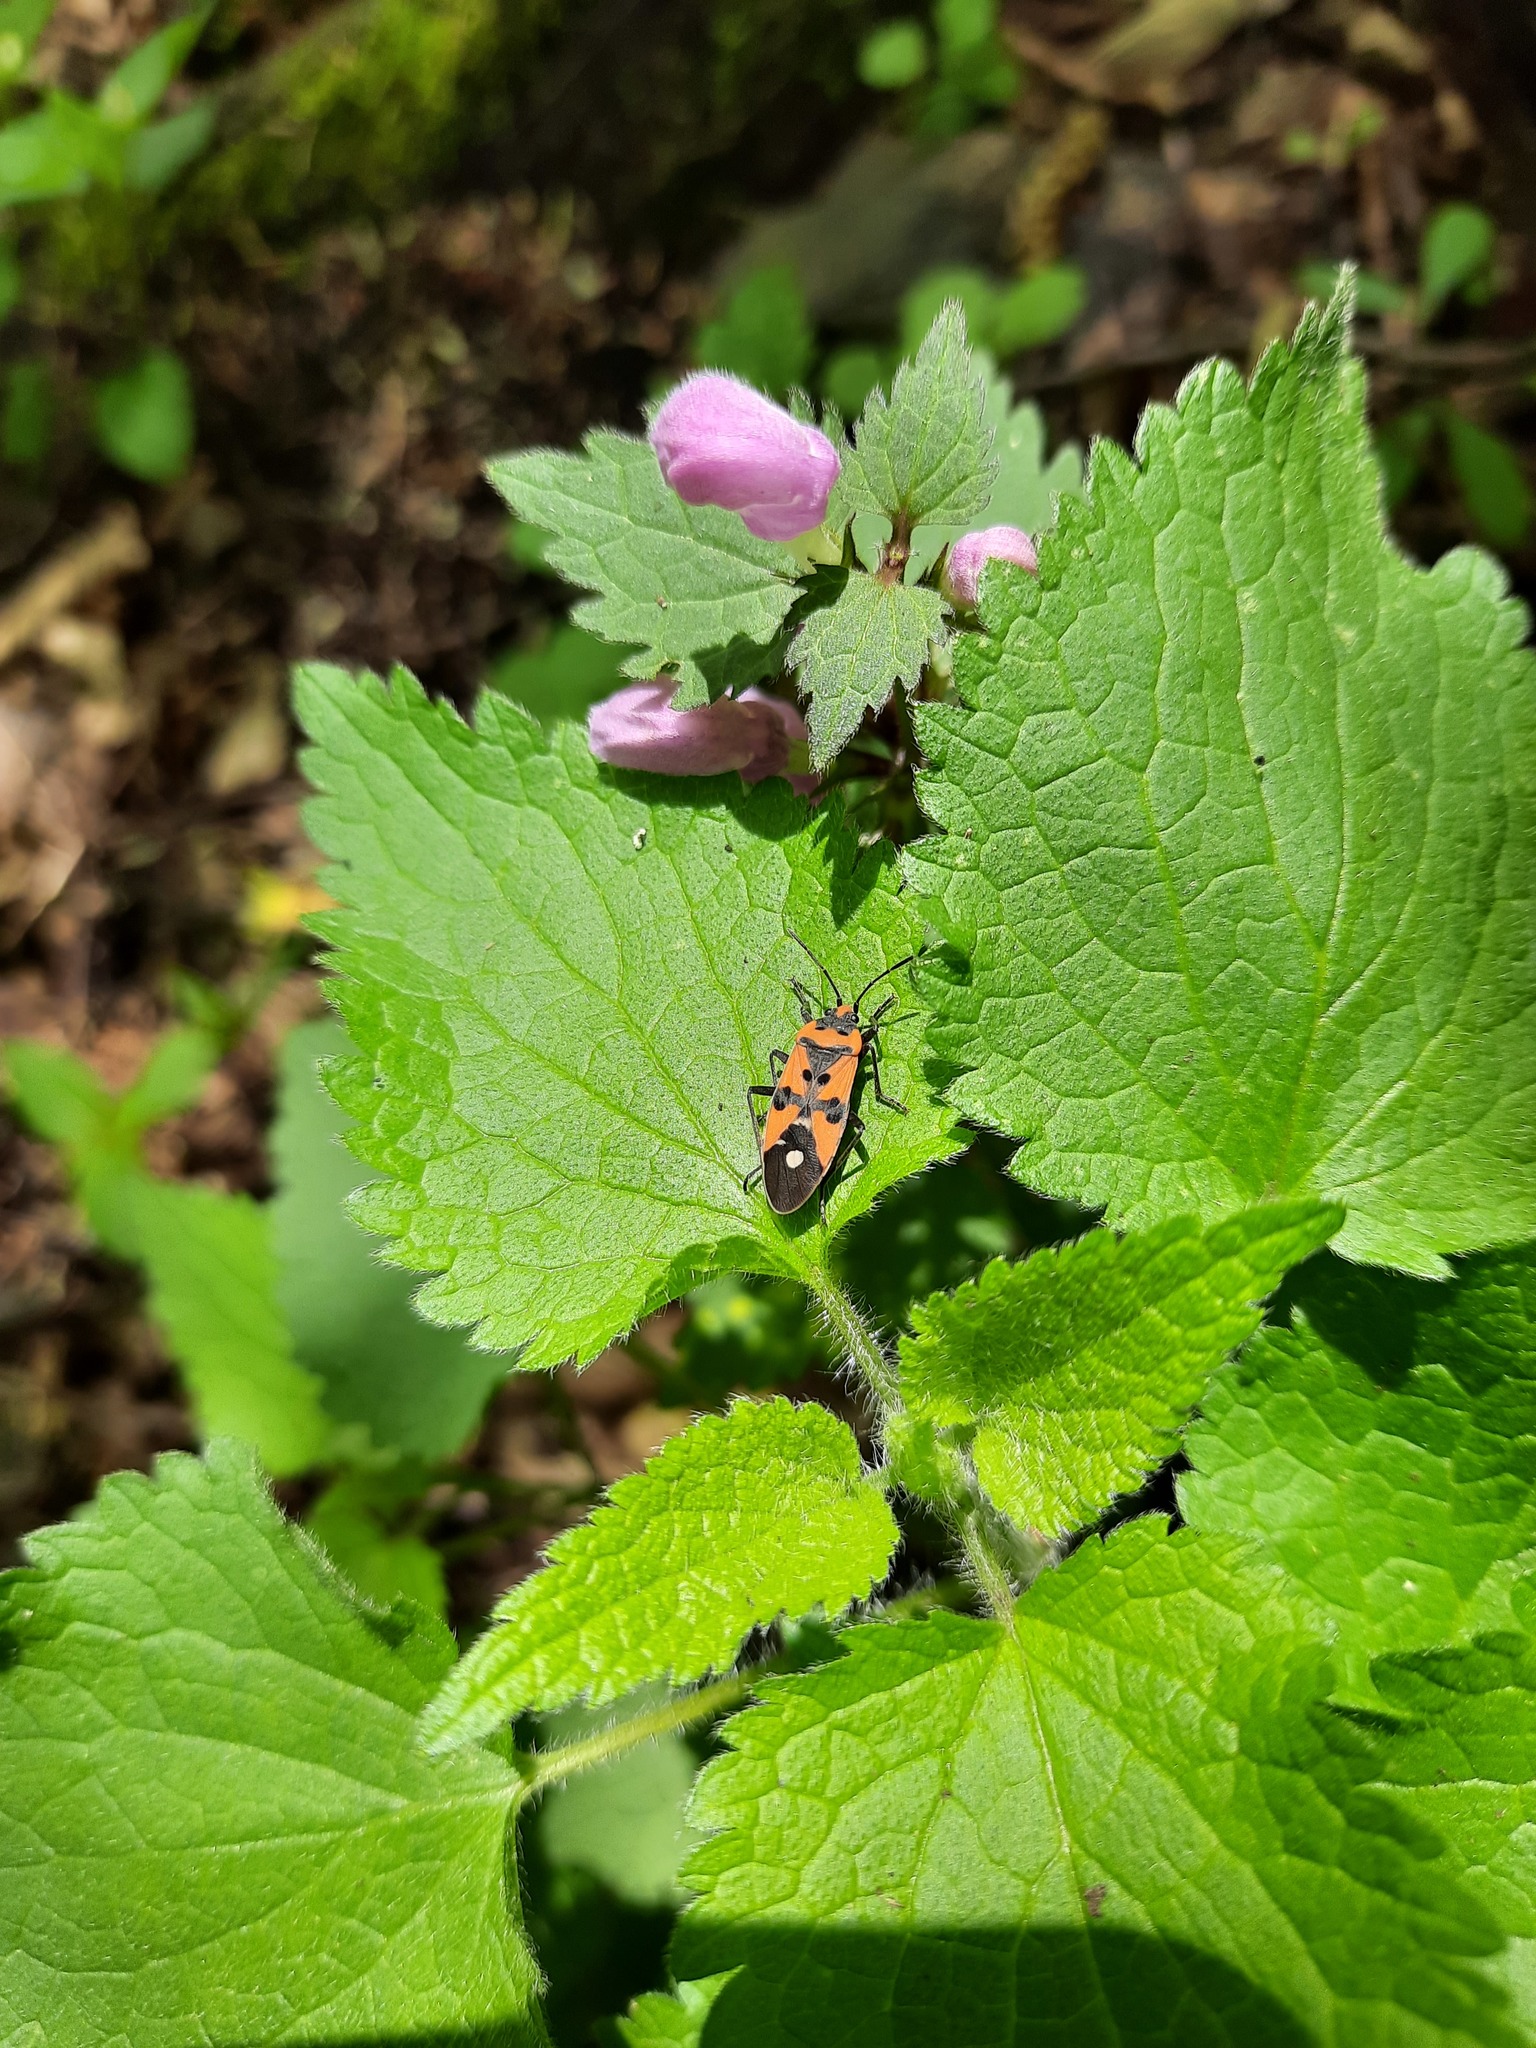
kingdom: Animalia
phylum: Arthropoda
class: Insecta
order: Hemiptera
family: Lygaeidae
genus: Lygaeus
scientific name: Lygaeus equestris
